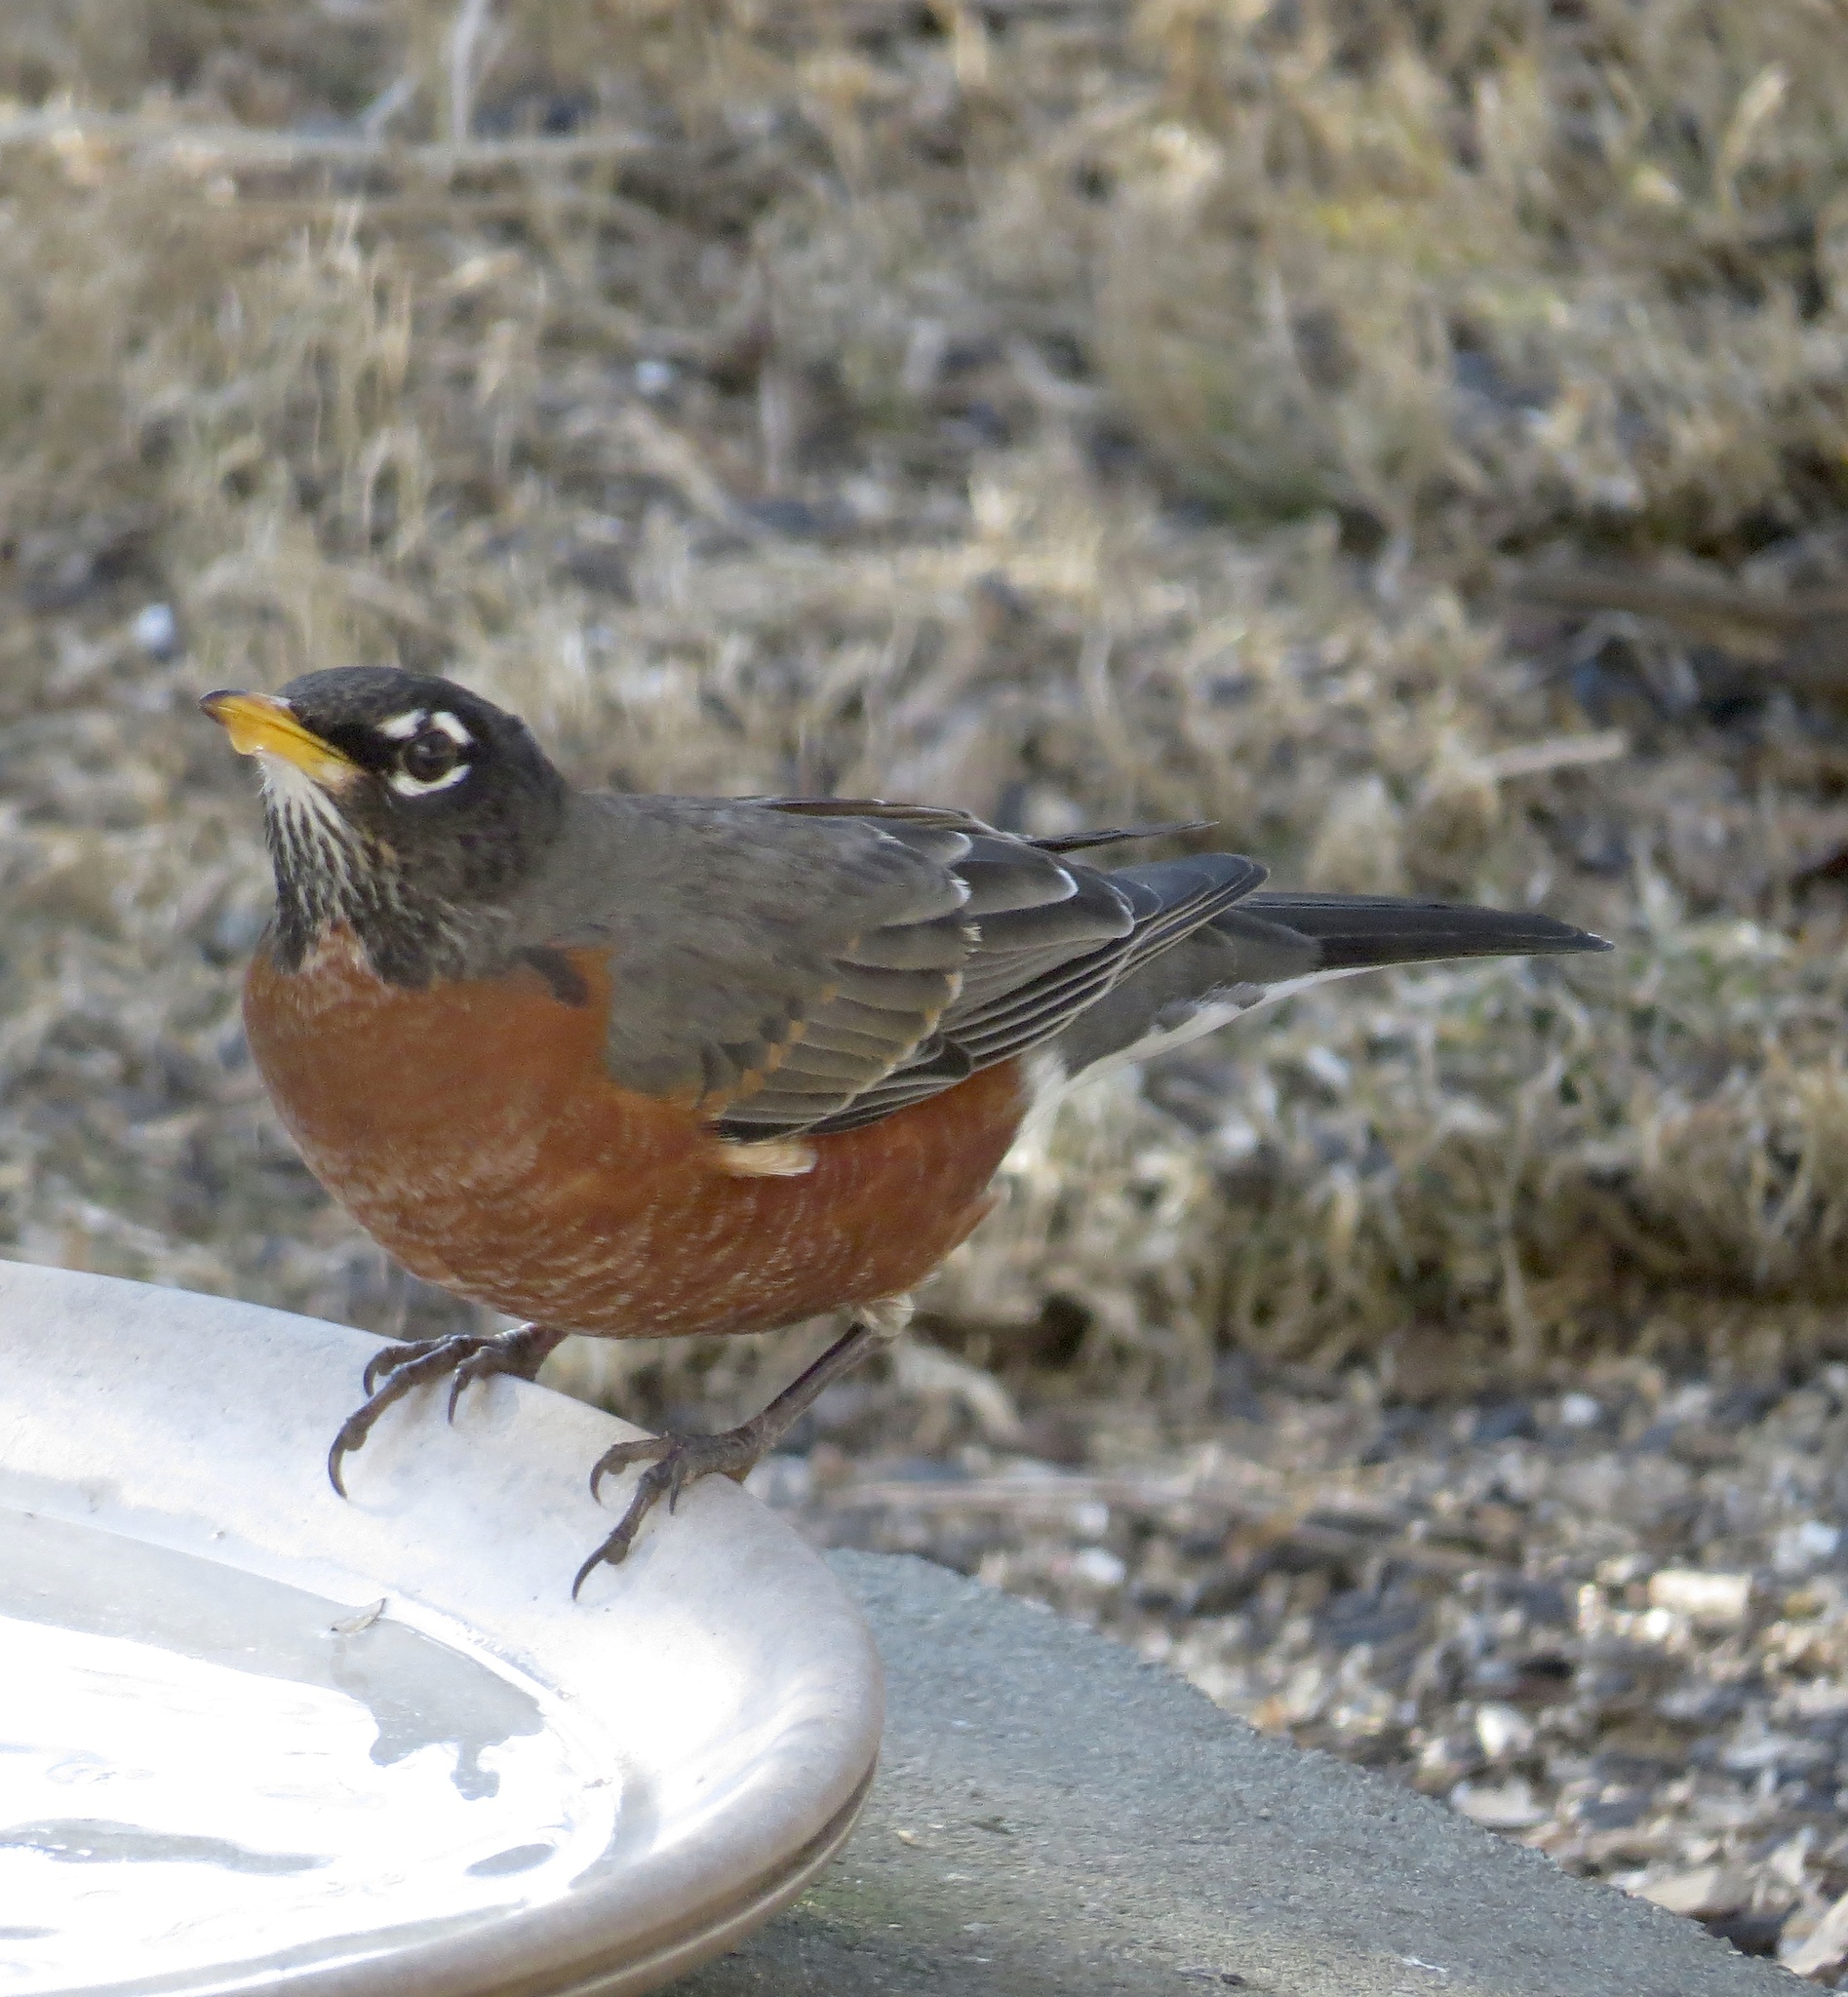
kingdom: Animalia
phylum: Chordata
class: Aves
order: Passeriformes
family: Turdidae
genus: Turdus
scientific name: Turdus migratorius
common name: American robin
